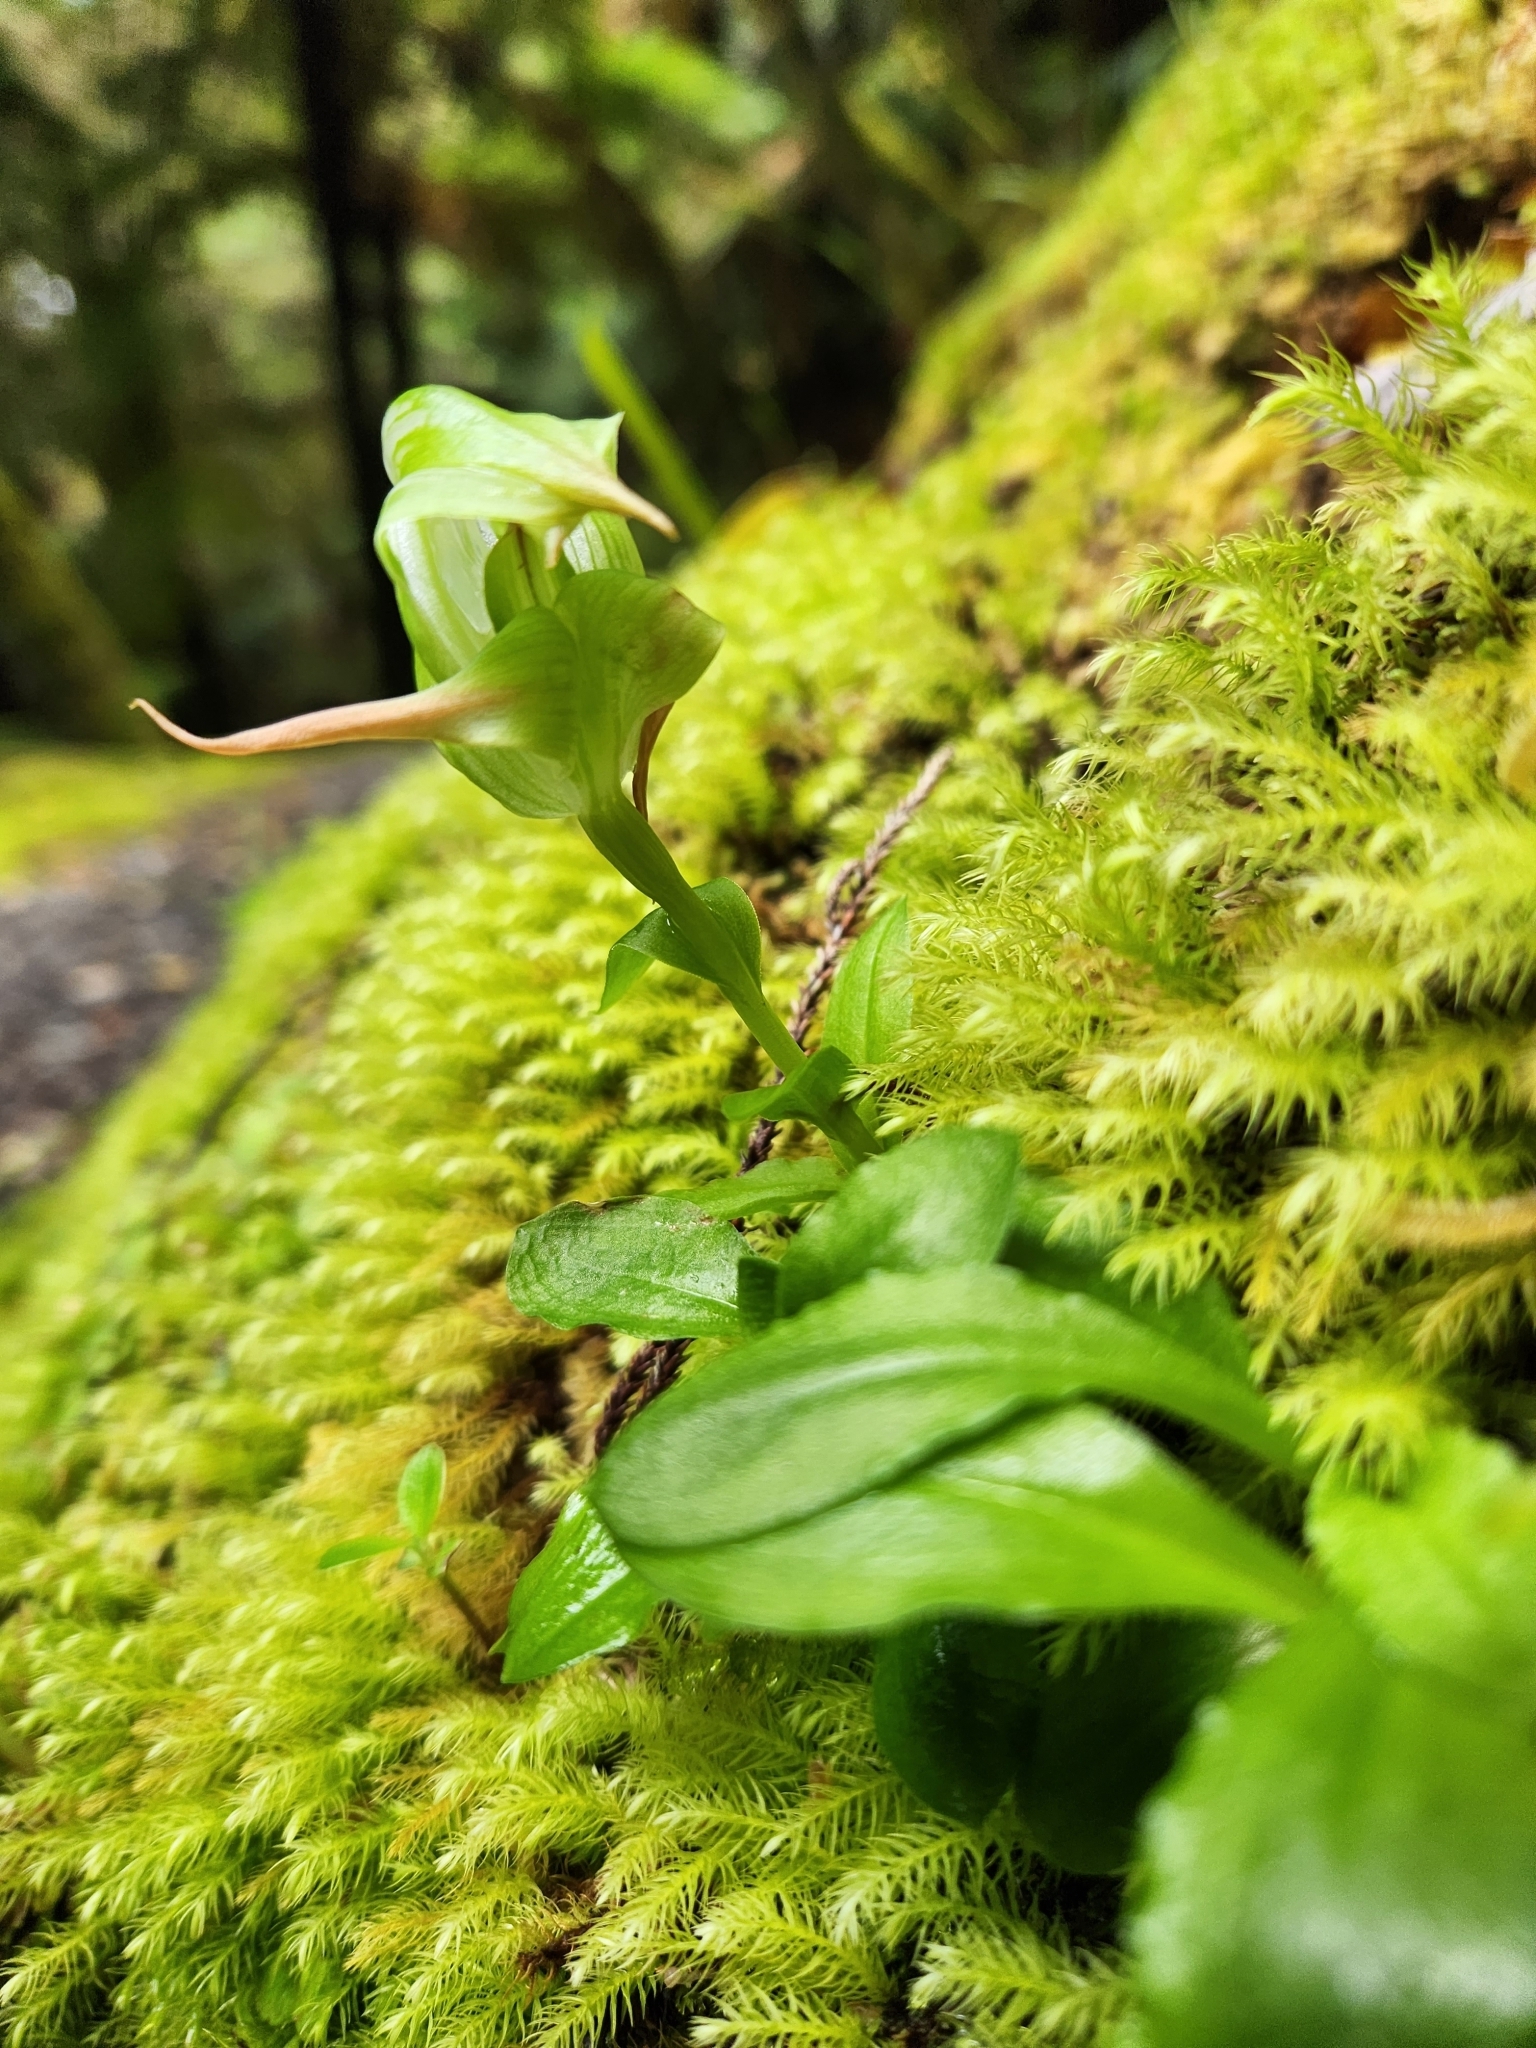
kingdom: Plantae
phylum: Tracheophyta
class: Liliopsida
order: Asparagales
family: Orchidaceae
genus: Pterostylis
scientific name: Pterostylis australis
